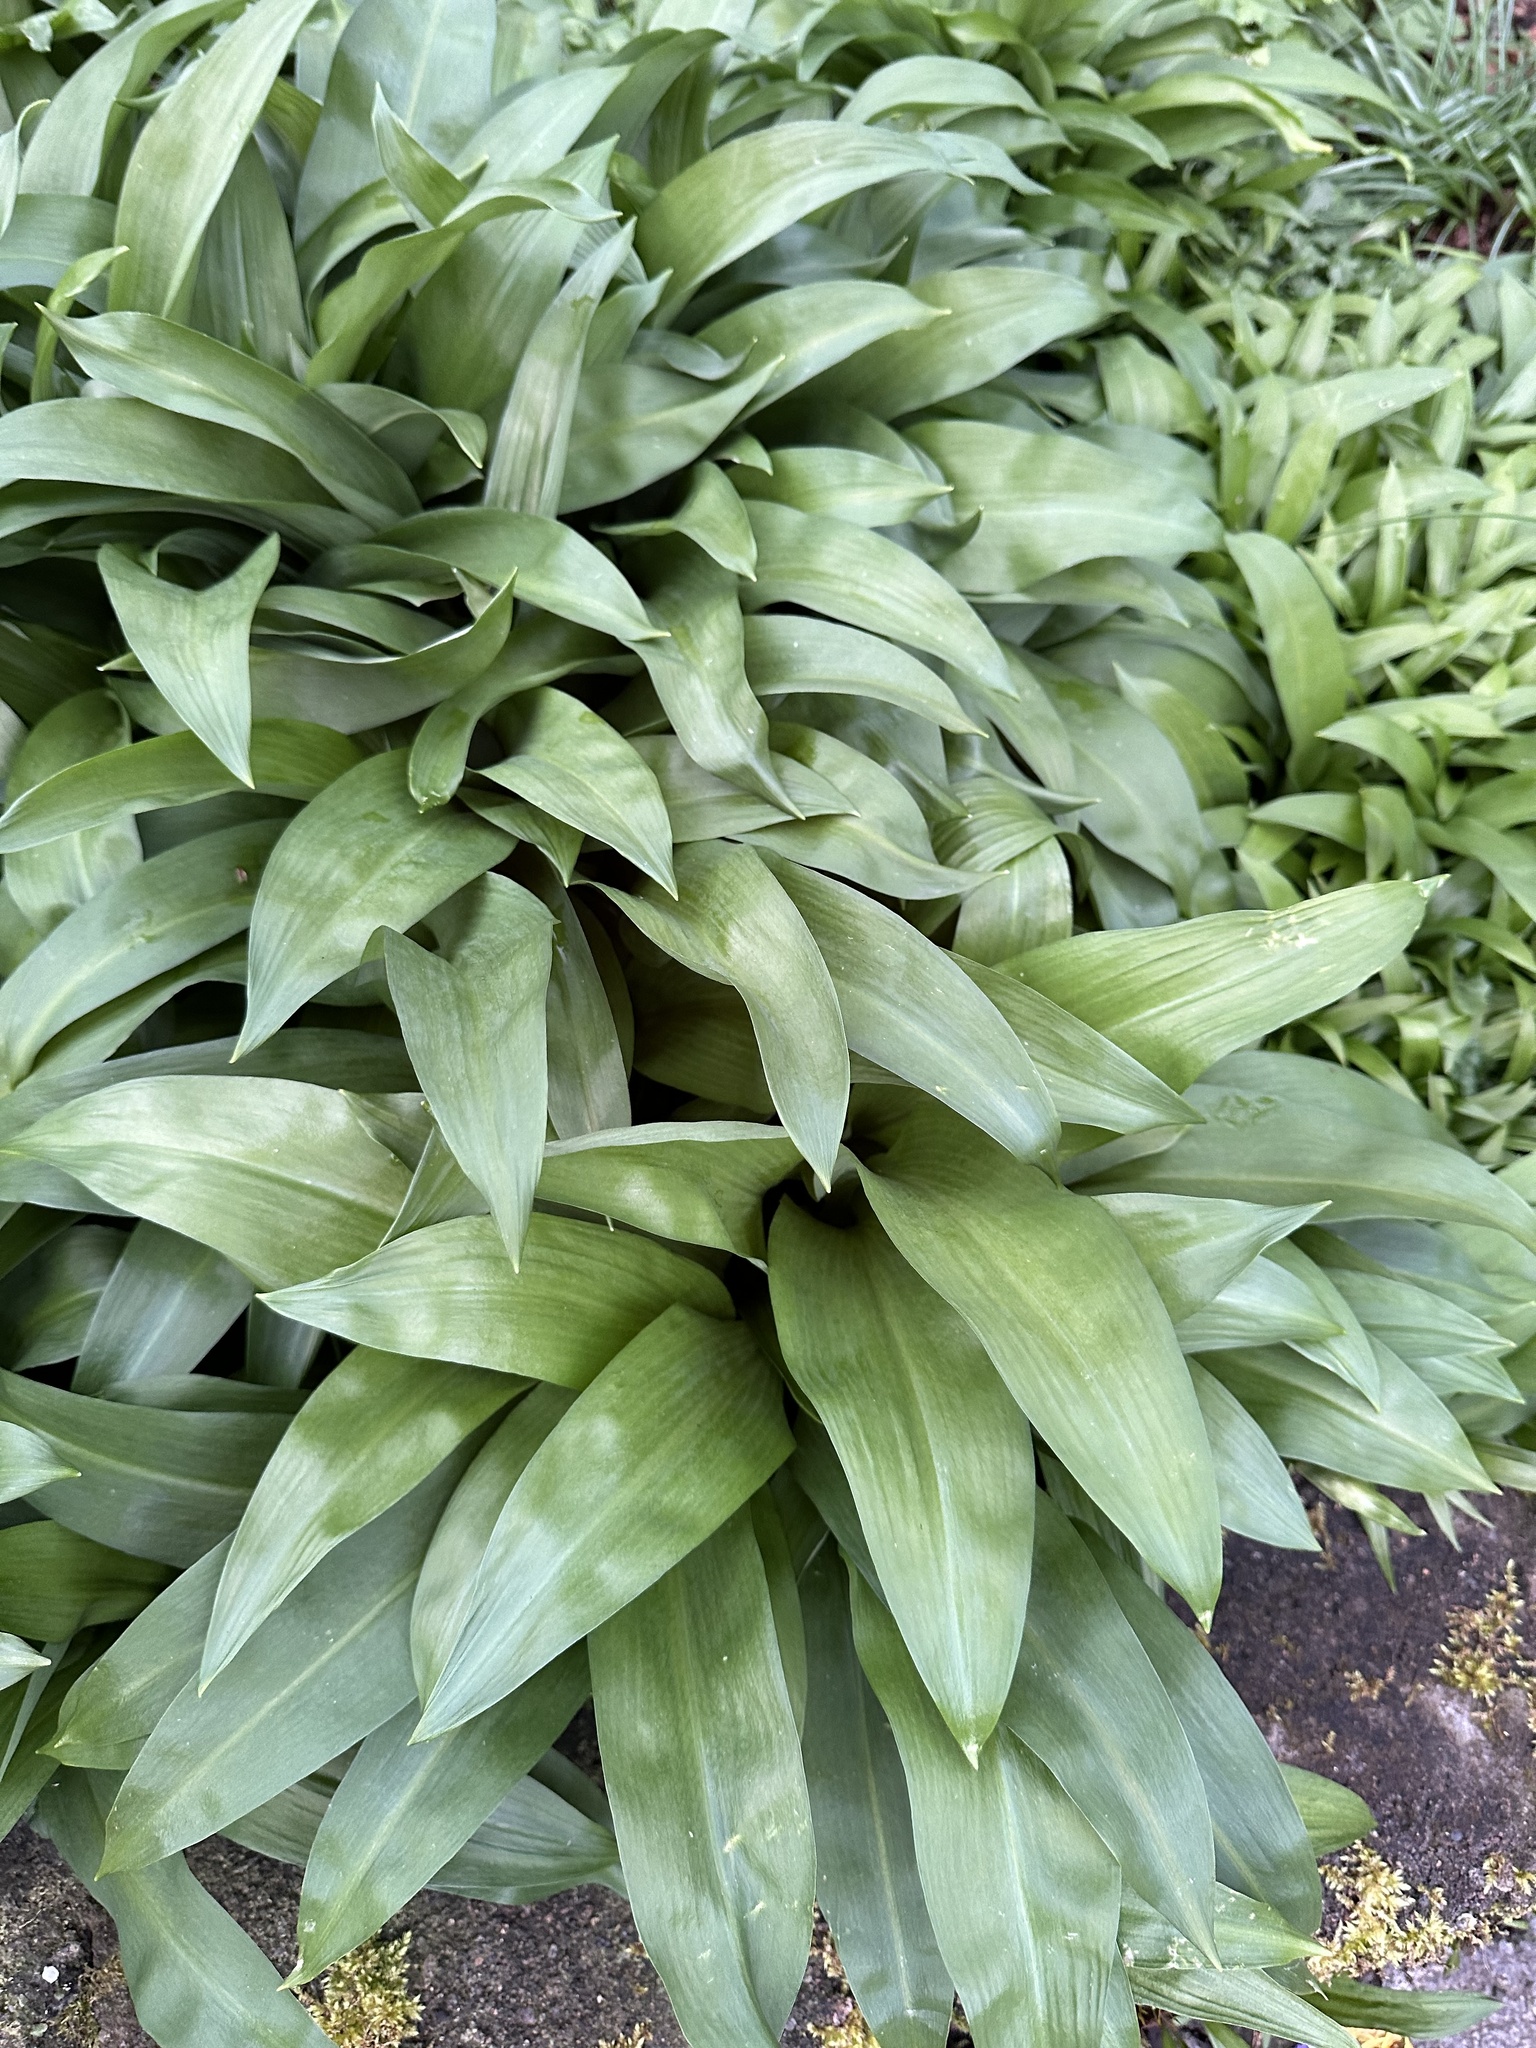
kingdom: Plantae
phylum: Tracheophyta
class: Liliopsida
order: Asparagales
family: Amaryllidaceae
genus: Allium
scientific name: Allium ursinum
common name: Ramsons
